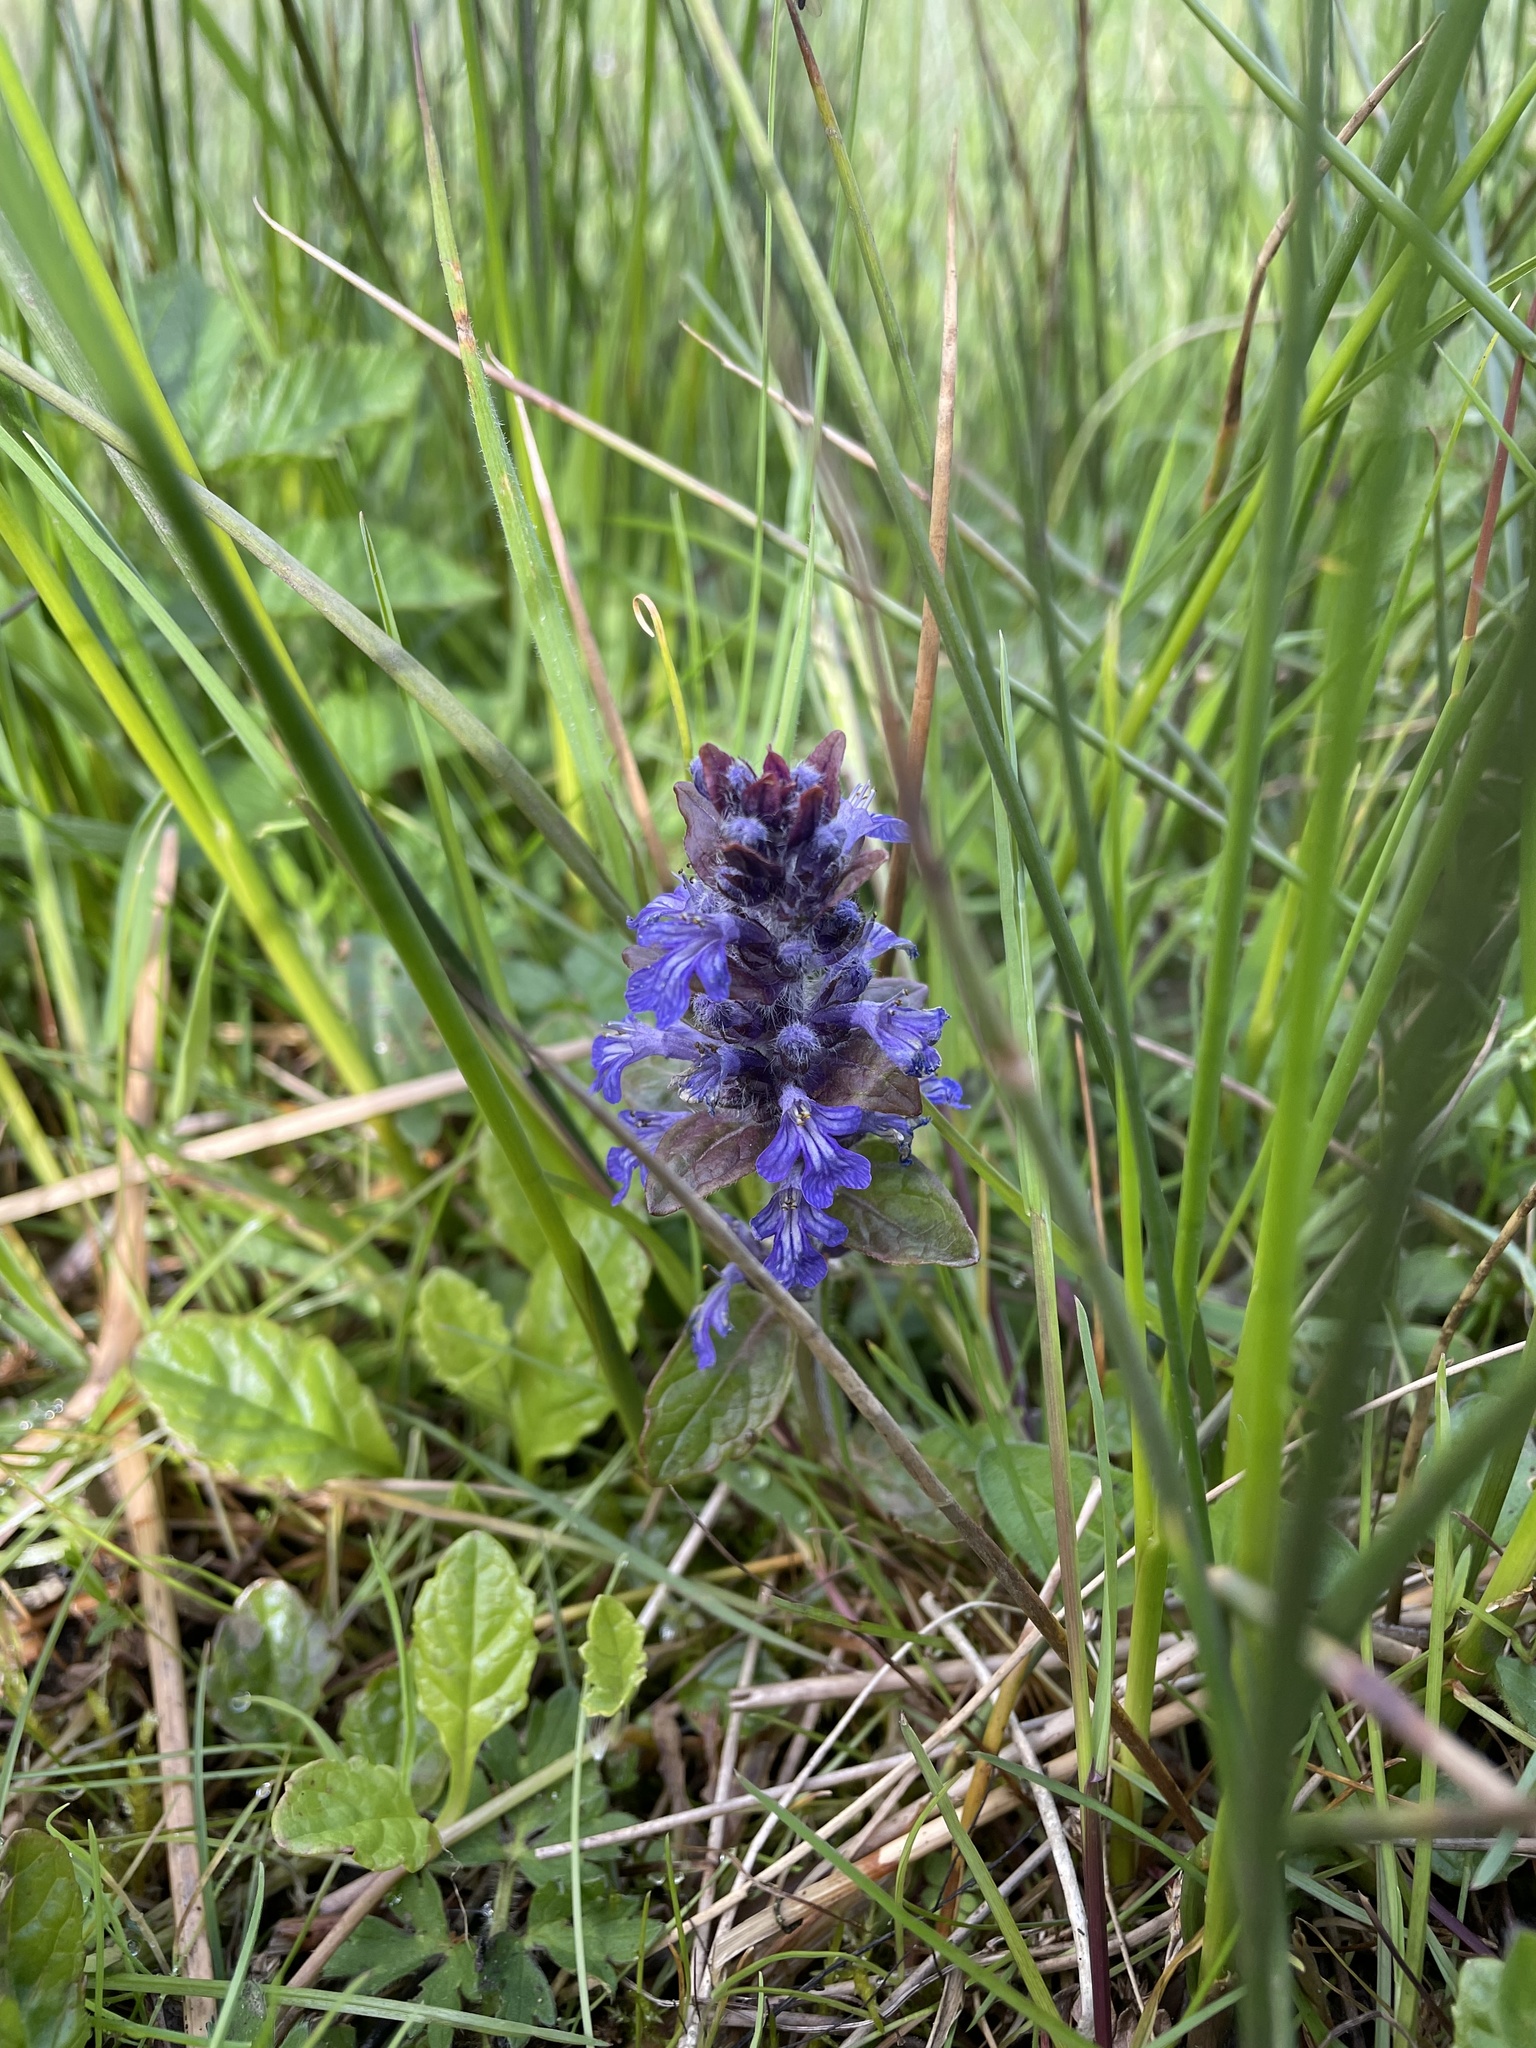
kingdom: Plantae
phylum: Tracheophyta
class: Magnoliopsida
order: Lamiales
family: Lamiaceae
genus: Ajuga
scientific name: Ajuga reptans
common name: Bugle
